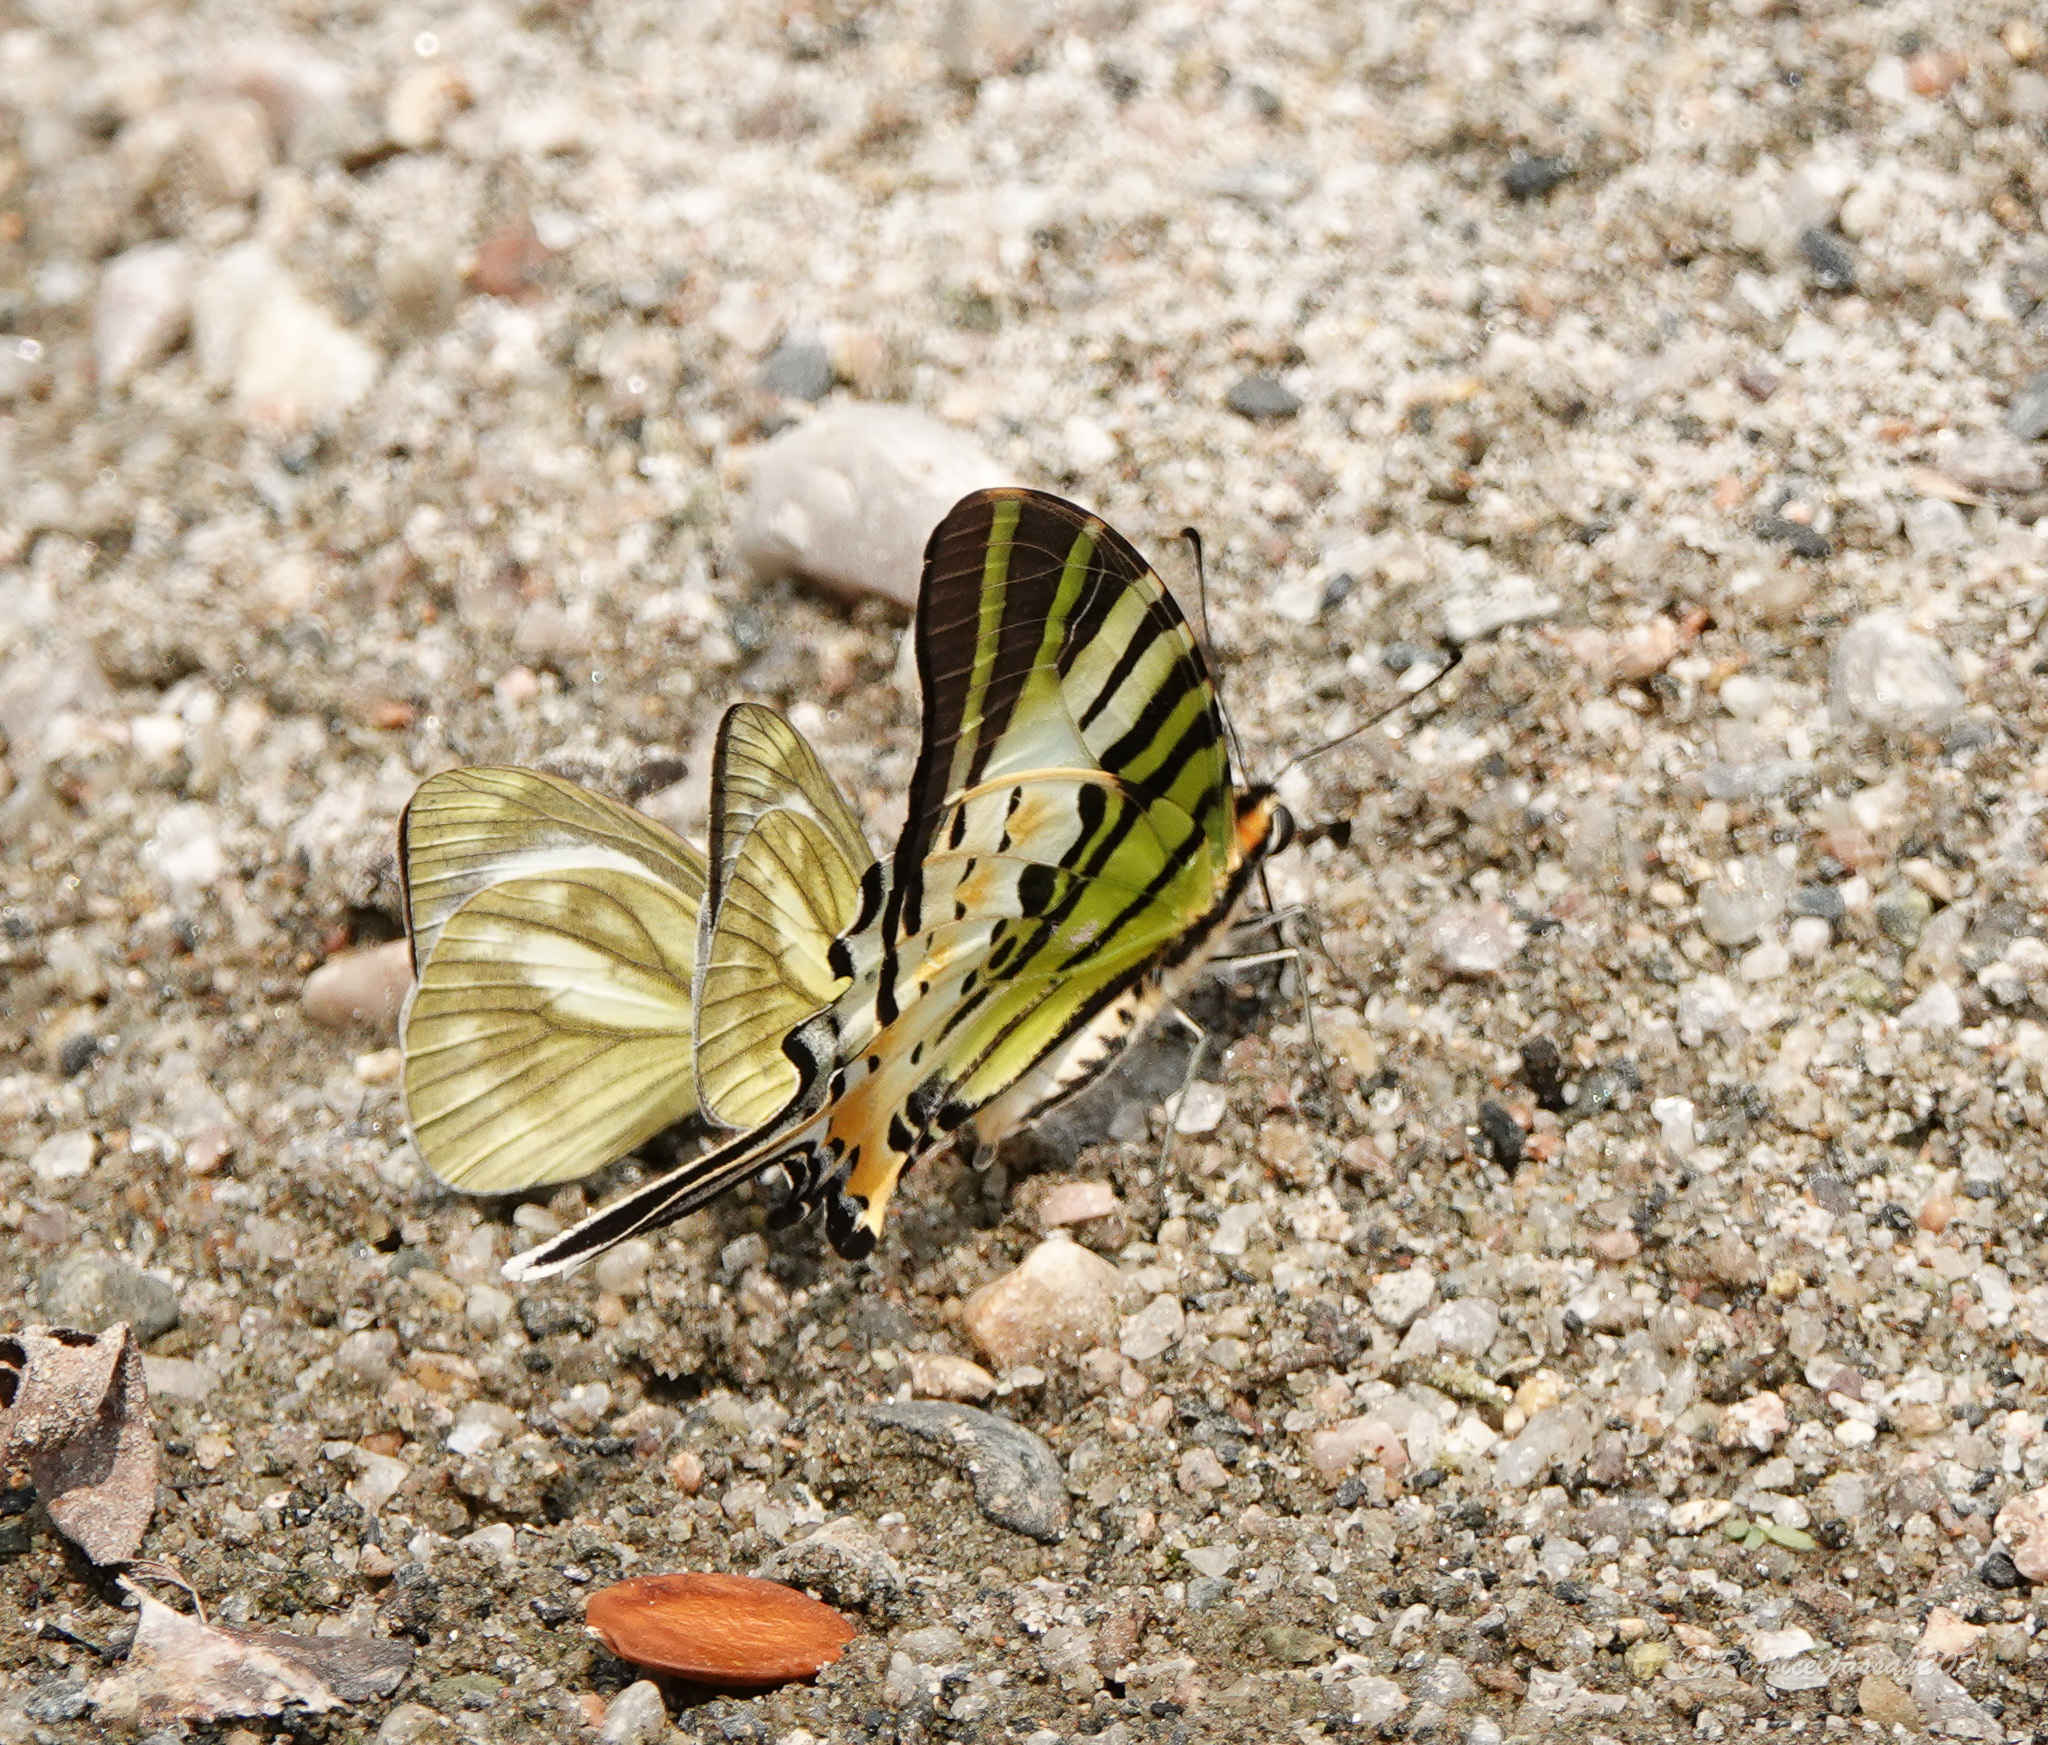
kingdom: Animalia
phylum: Arthropoda
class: Insecta
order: Lepidoptera
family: Papilionidae
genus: Graphium
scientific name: Graphium antiphates
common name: Fivebar swordtail
